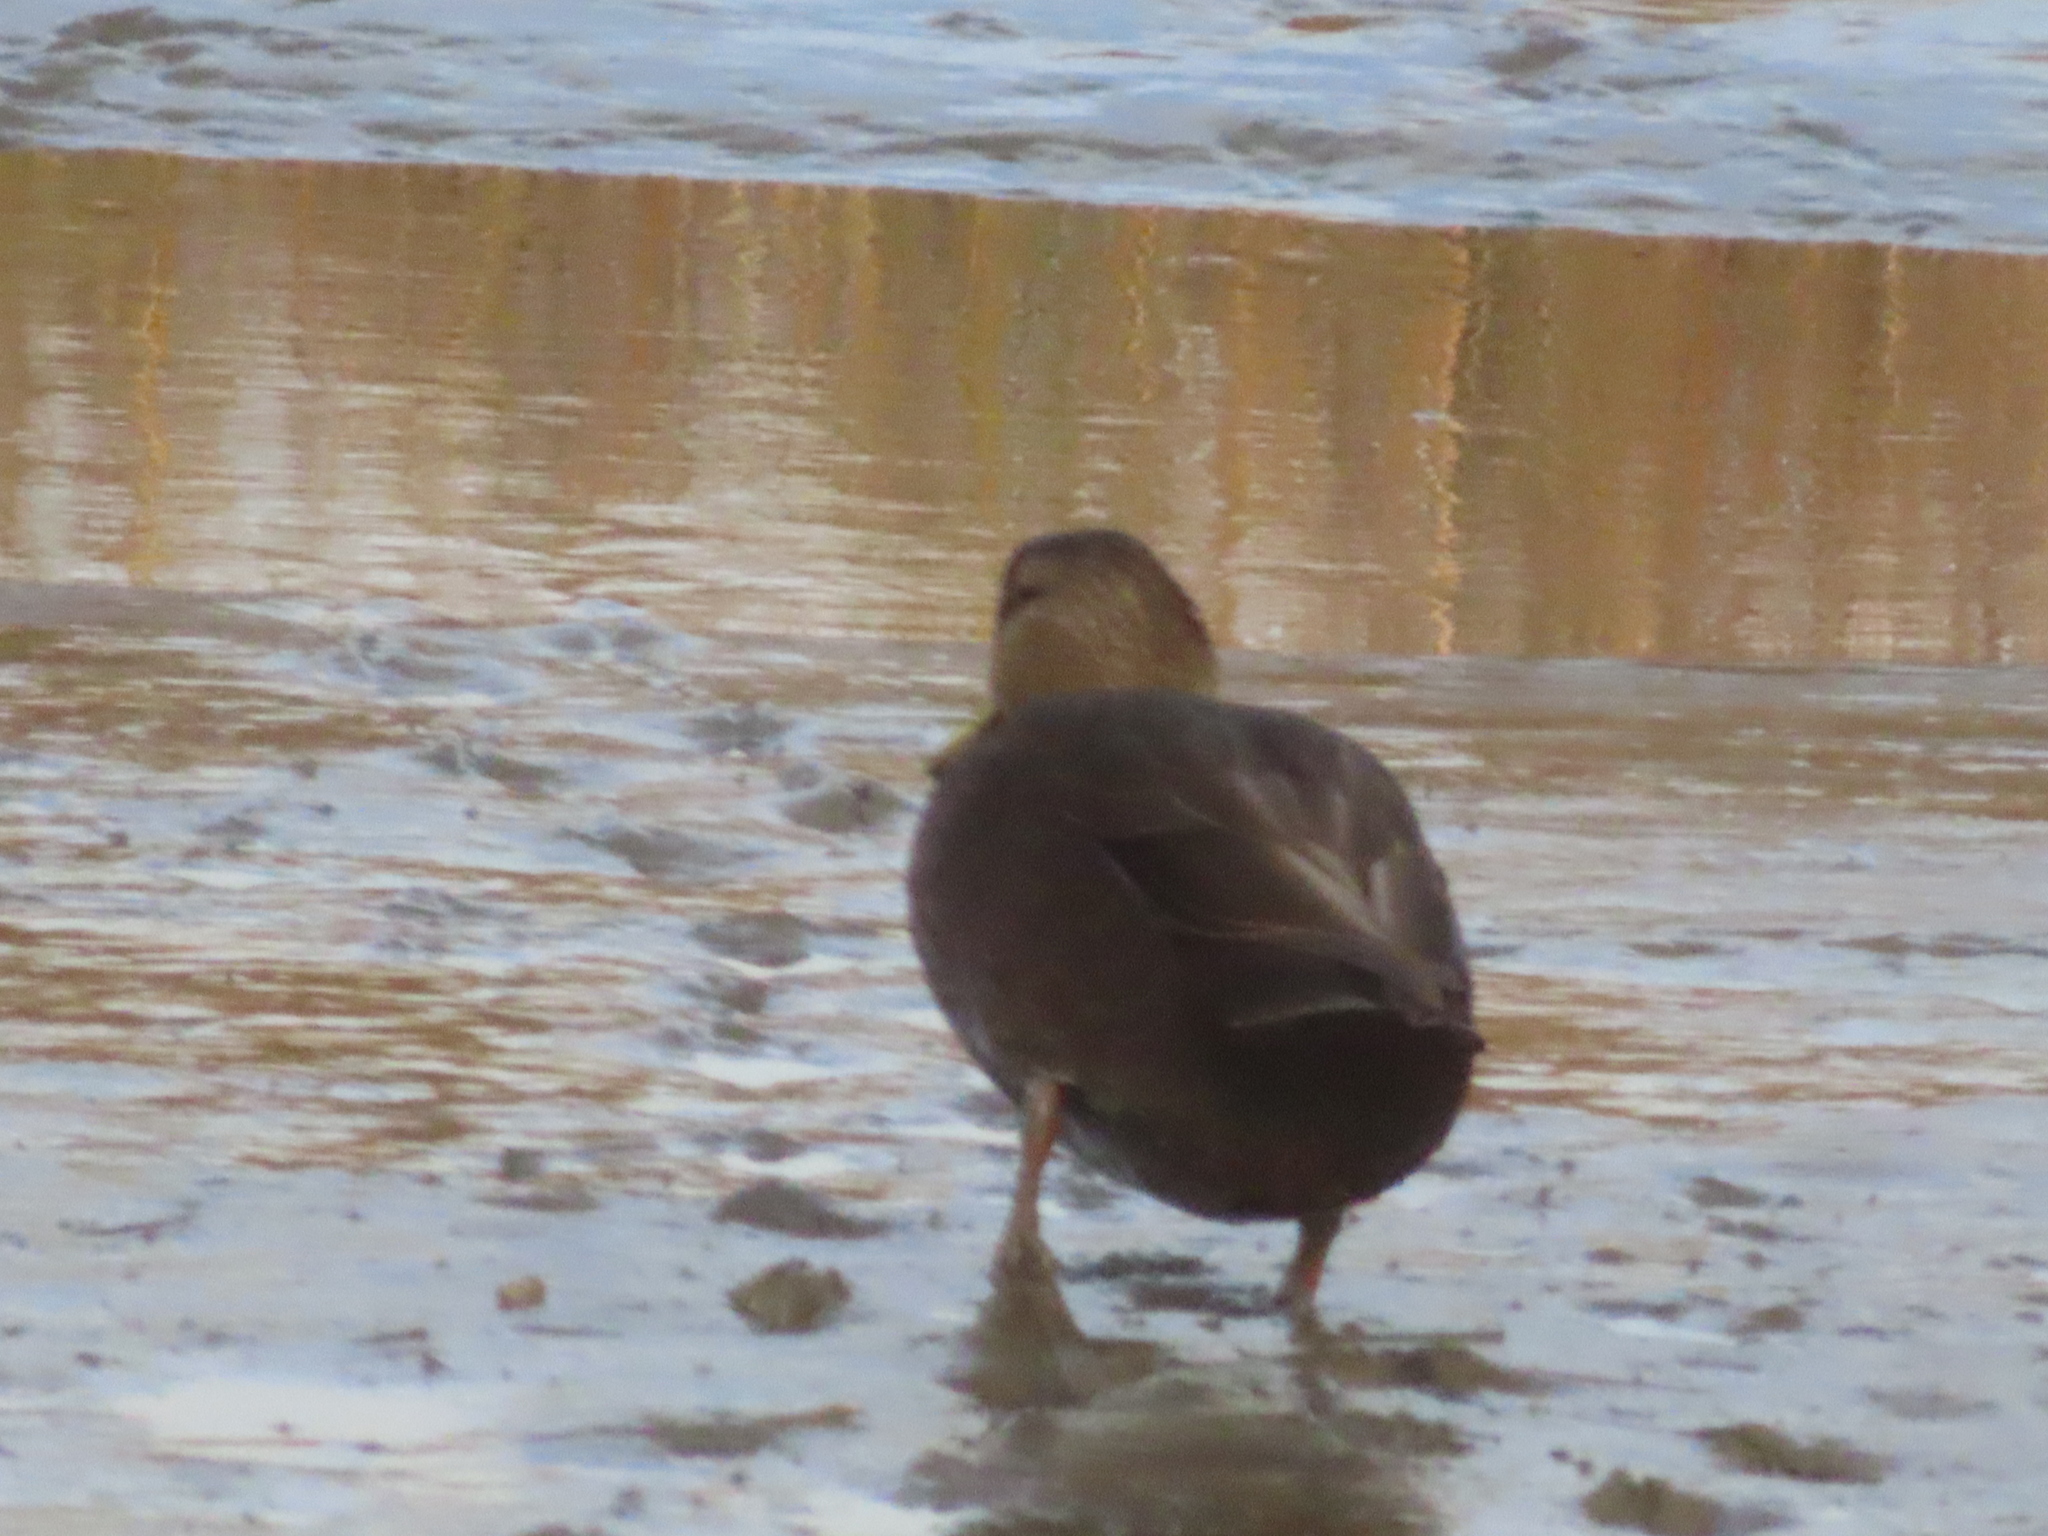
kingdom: Animalia
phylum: Chordata
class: Aves
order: Anseriformes
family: Anatidae
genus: Anas
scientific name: Anas rubripes
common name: American black duck
